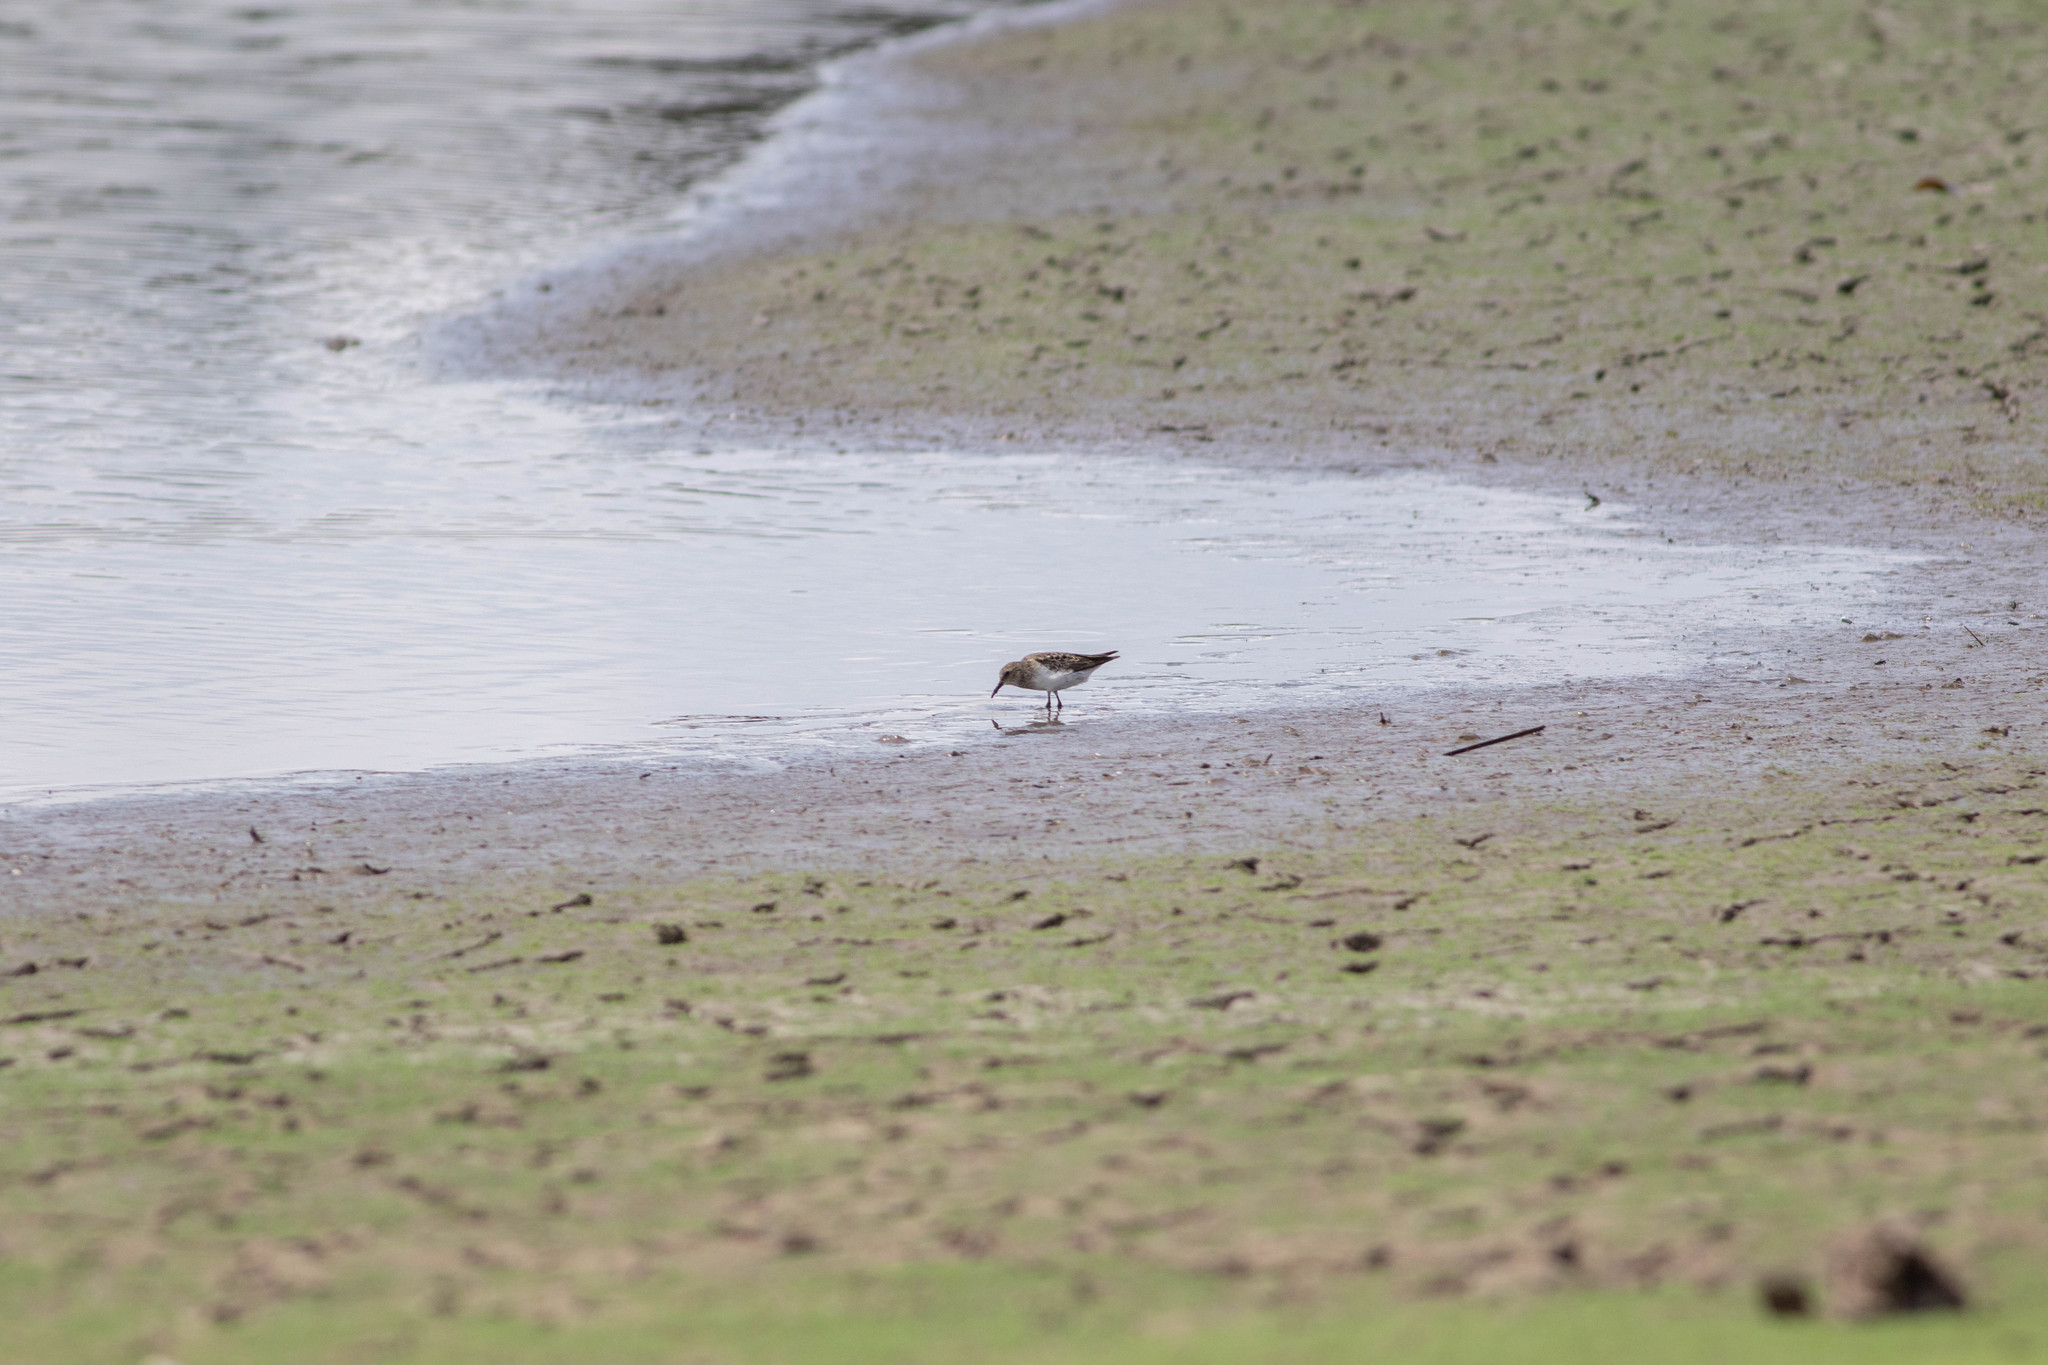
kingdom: Animalia
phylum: Chordata
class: Aves
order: Charadriiformes
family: Scolopacidae
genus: Calidris
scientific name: Calidris minutilla
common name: Least sandpiper
